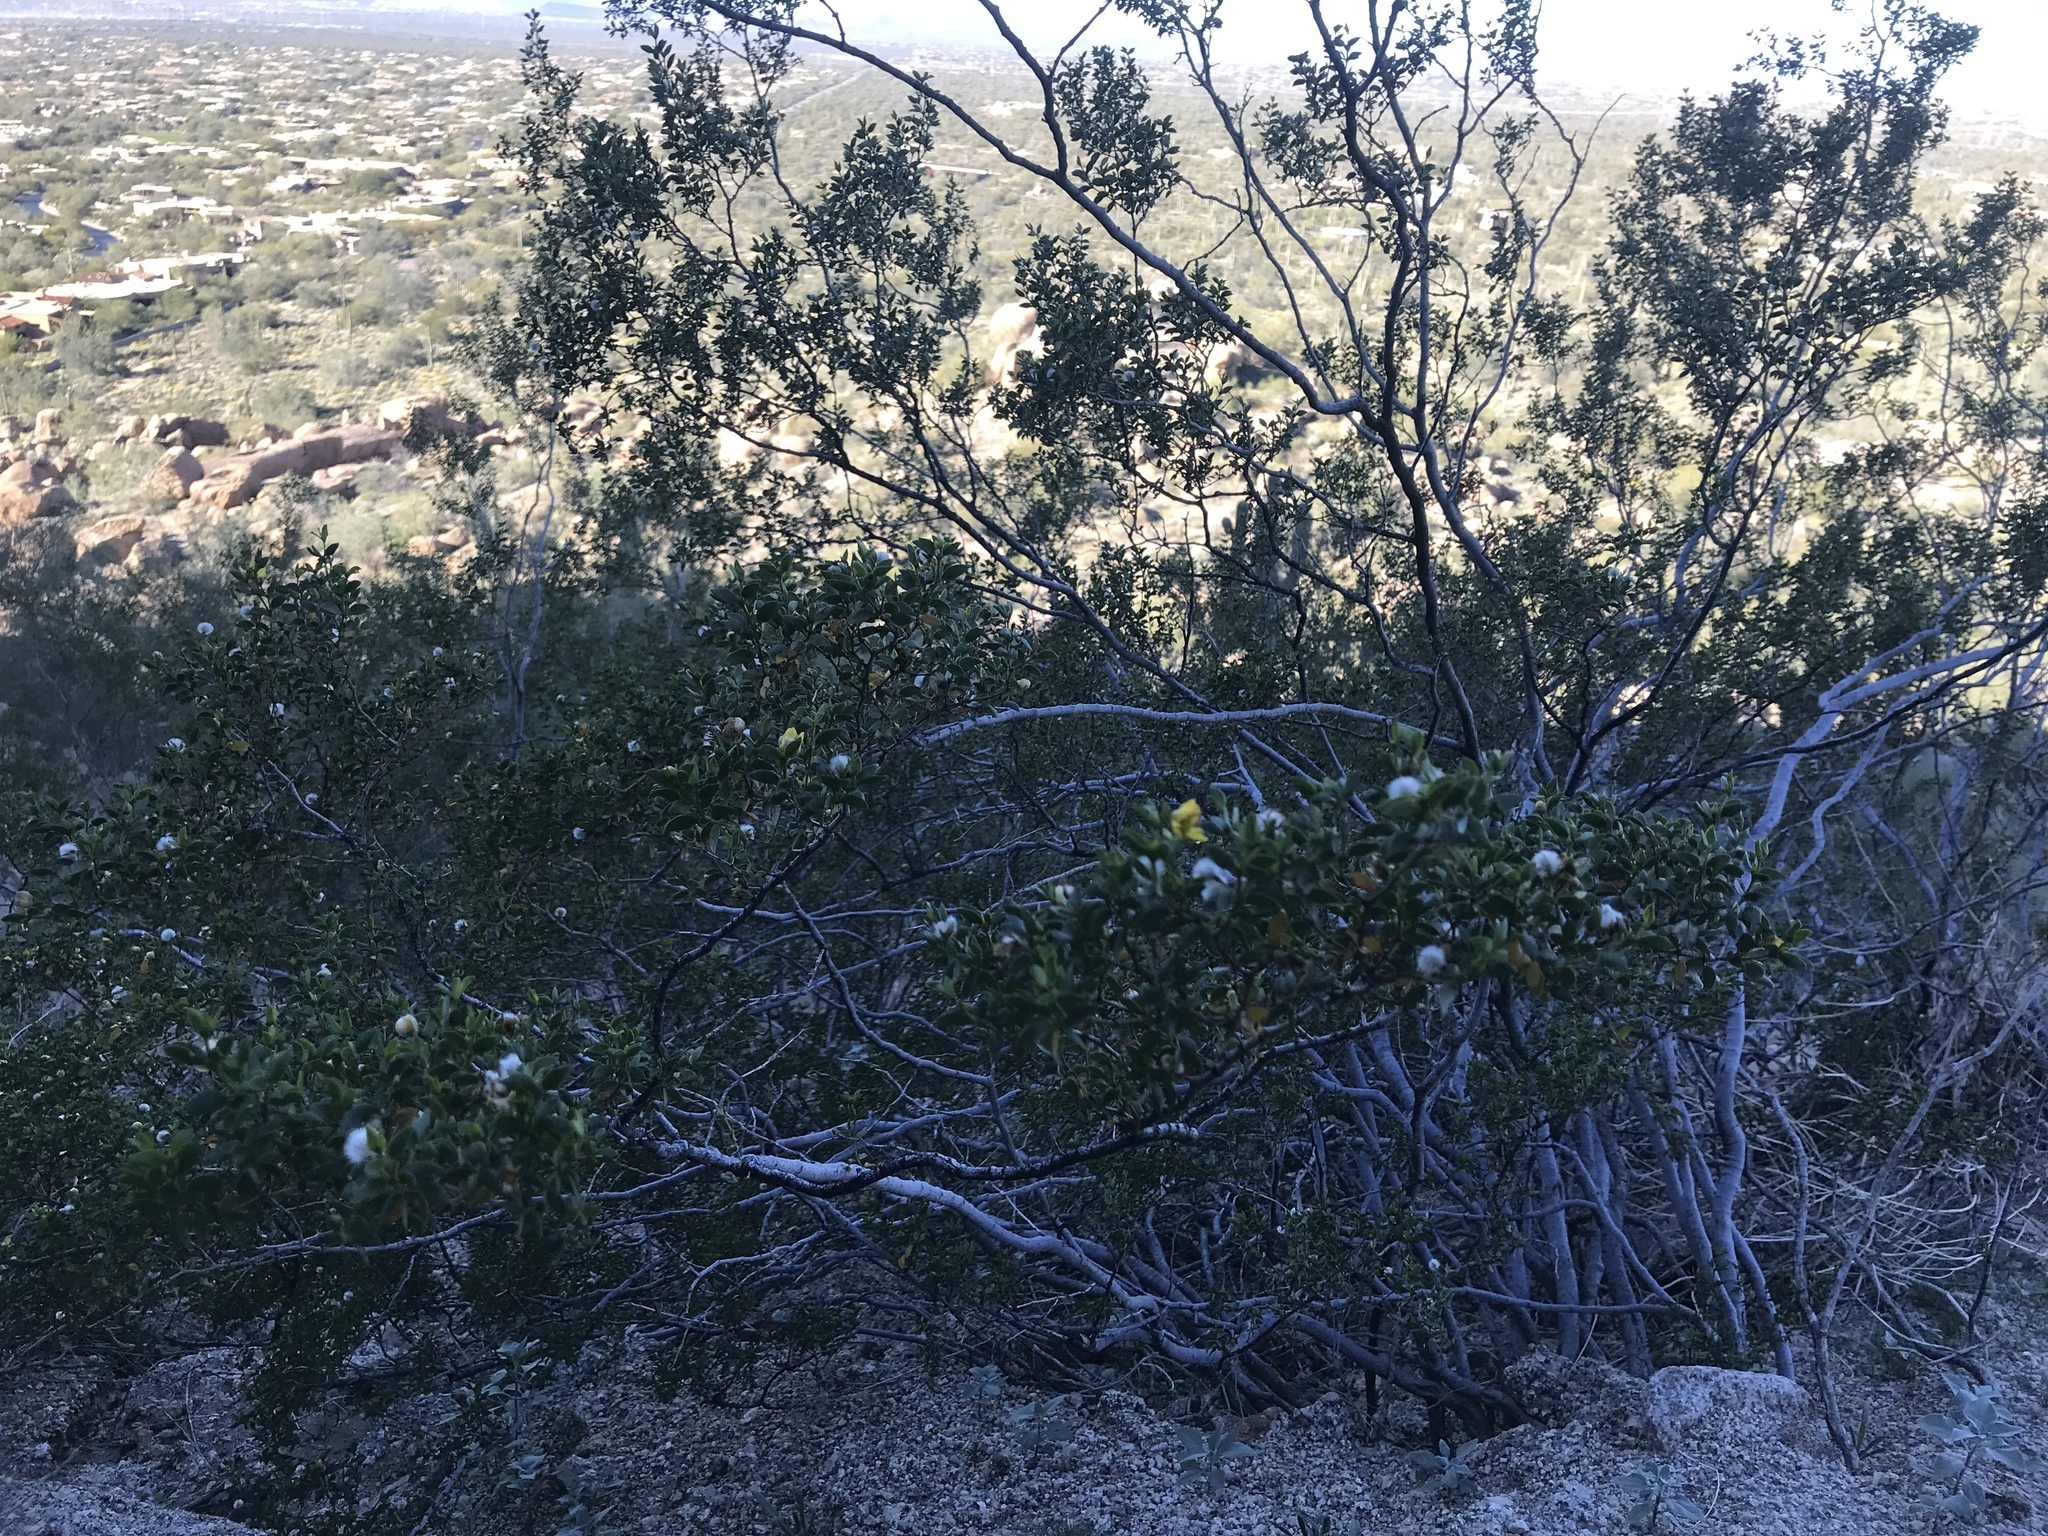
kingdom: Plantae
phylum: Tracheophyta
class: Magnoliopsida
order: Zygophyllales
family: Zygophyllaceae
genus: Larrea
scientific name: Larrea tridentata
